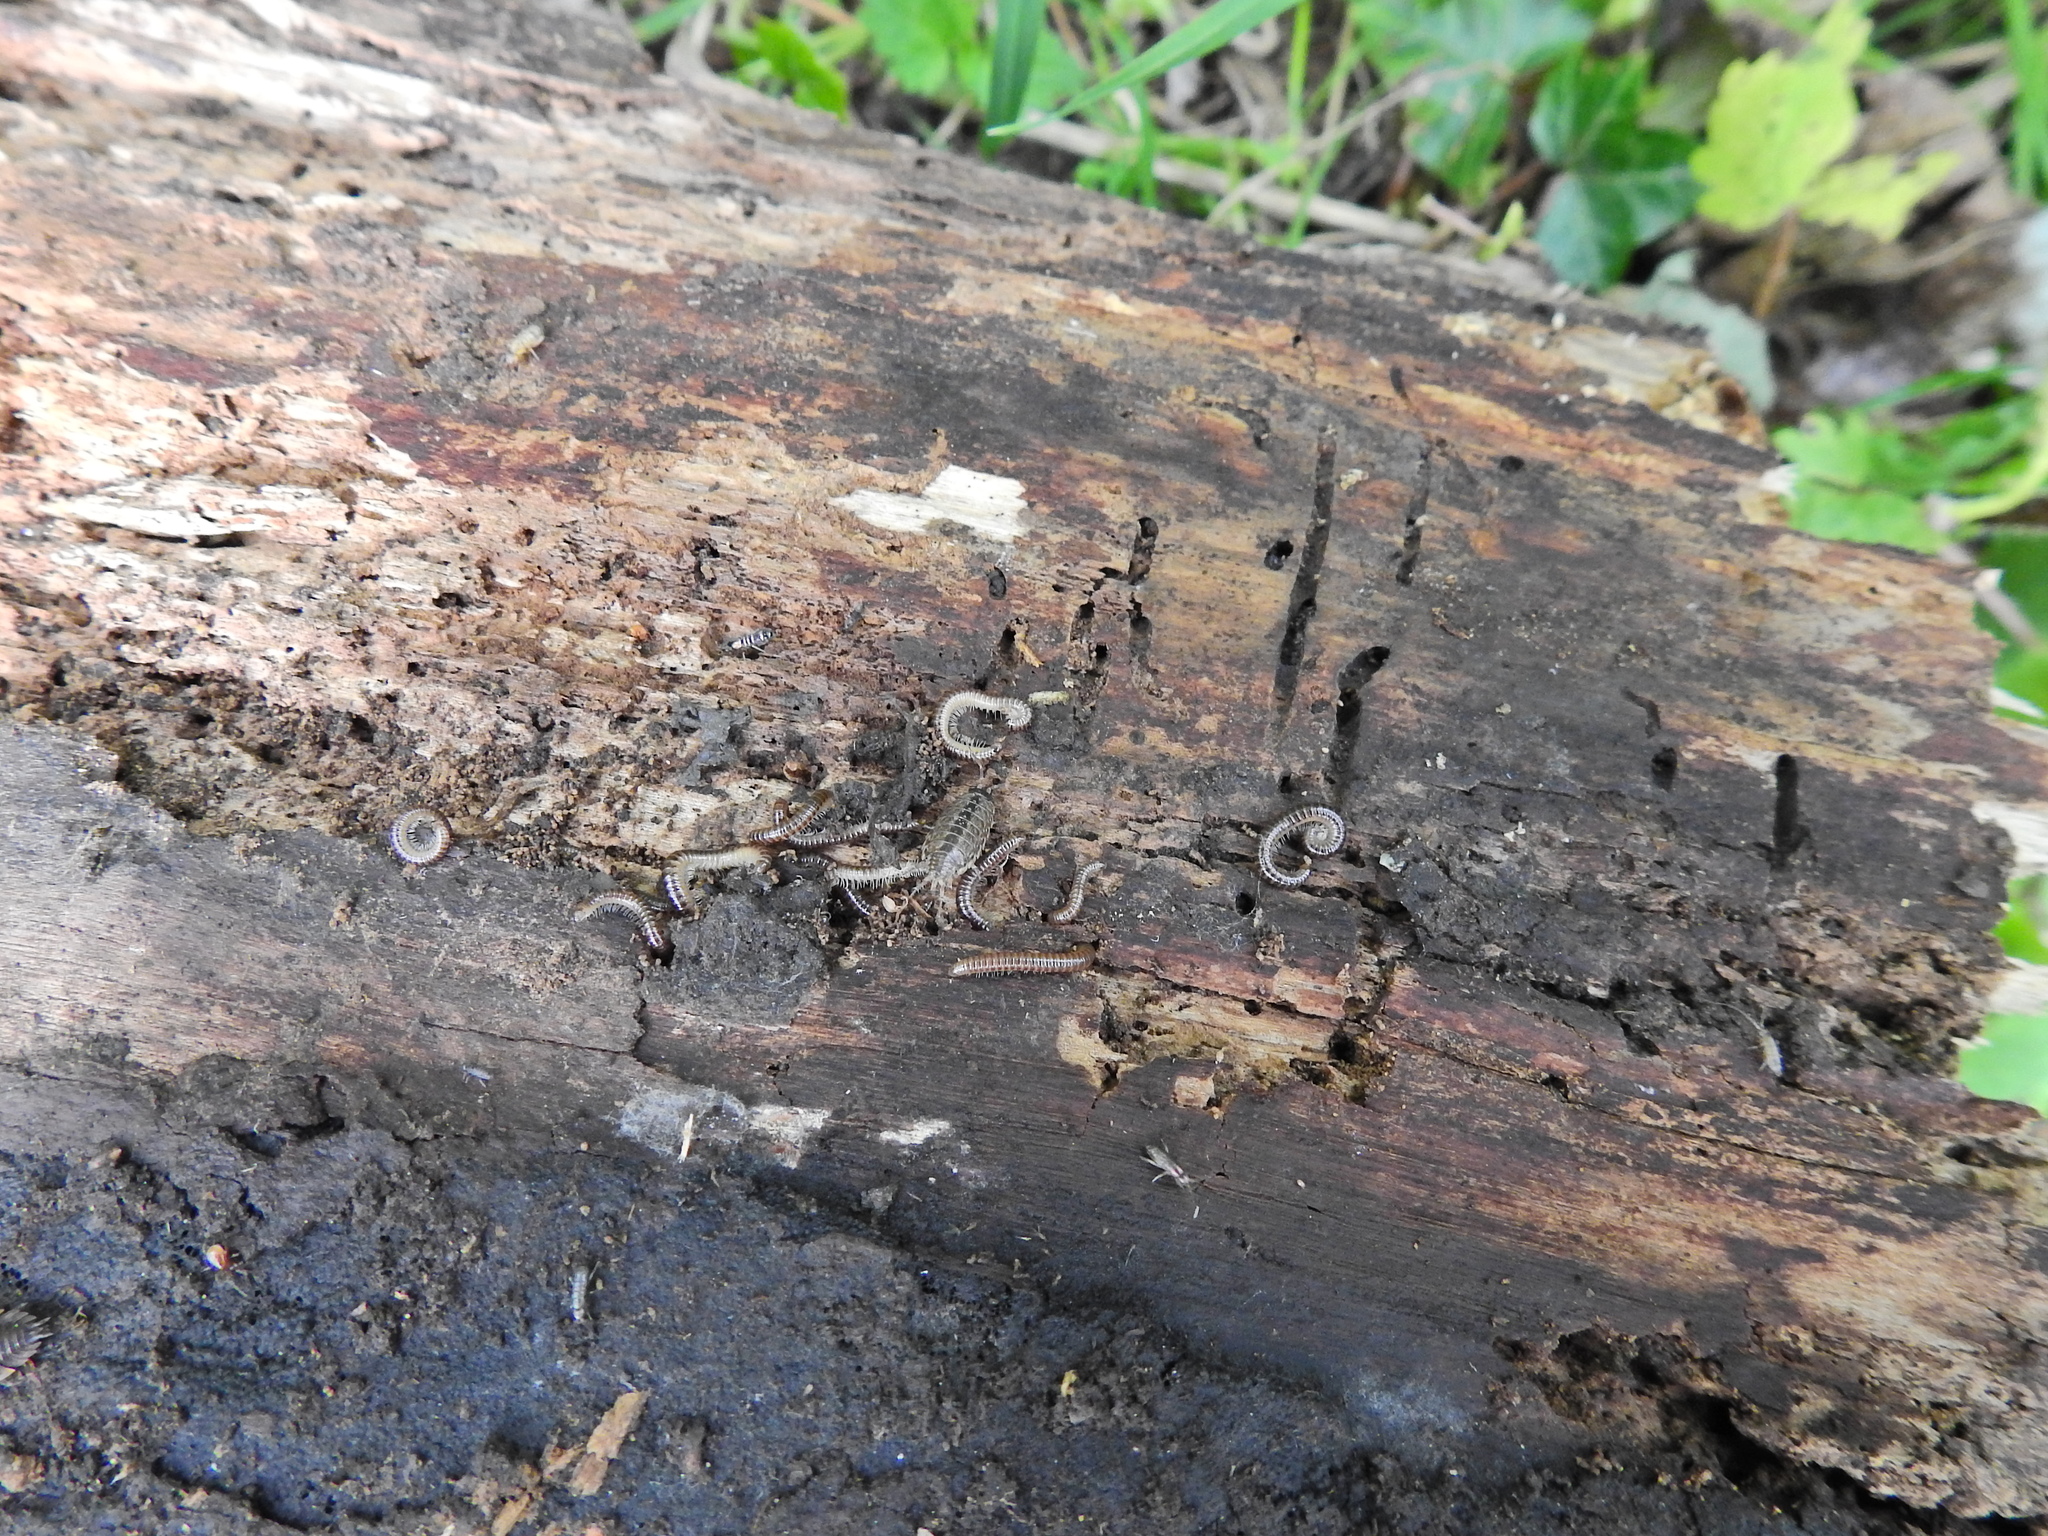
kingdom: Animalia
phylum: Arthropoda
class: Malacostraca
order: Isopoda
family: Philosciidae
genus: Philoscia
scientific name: Philoscia muscorum
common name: Common striped woodlouse
